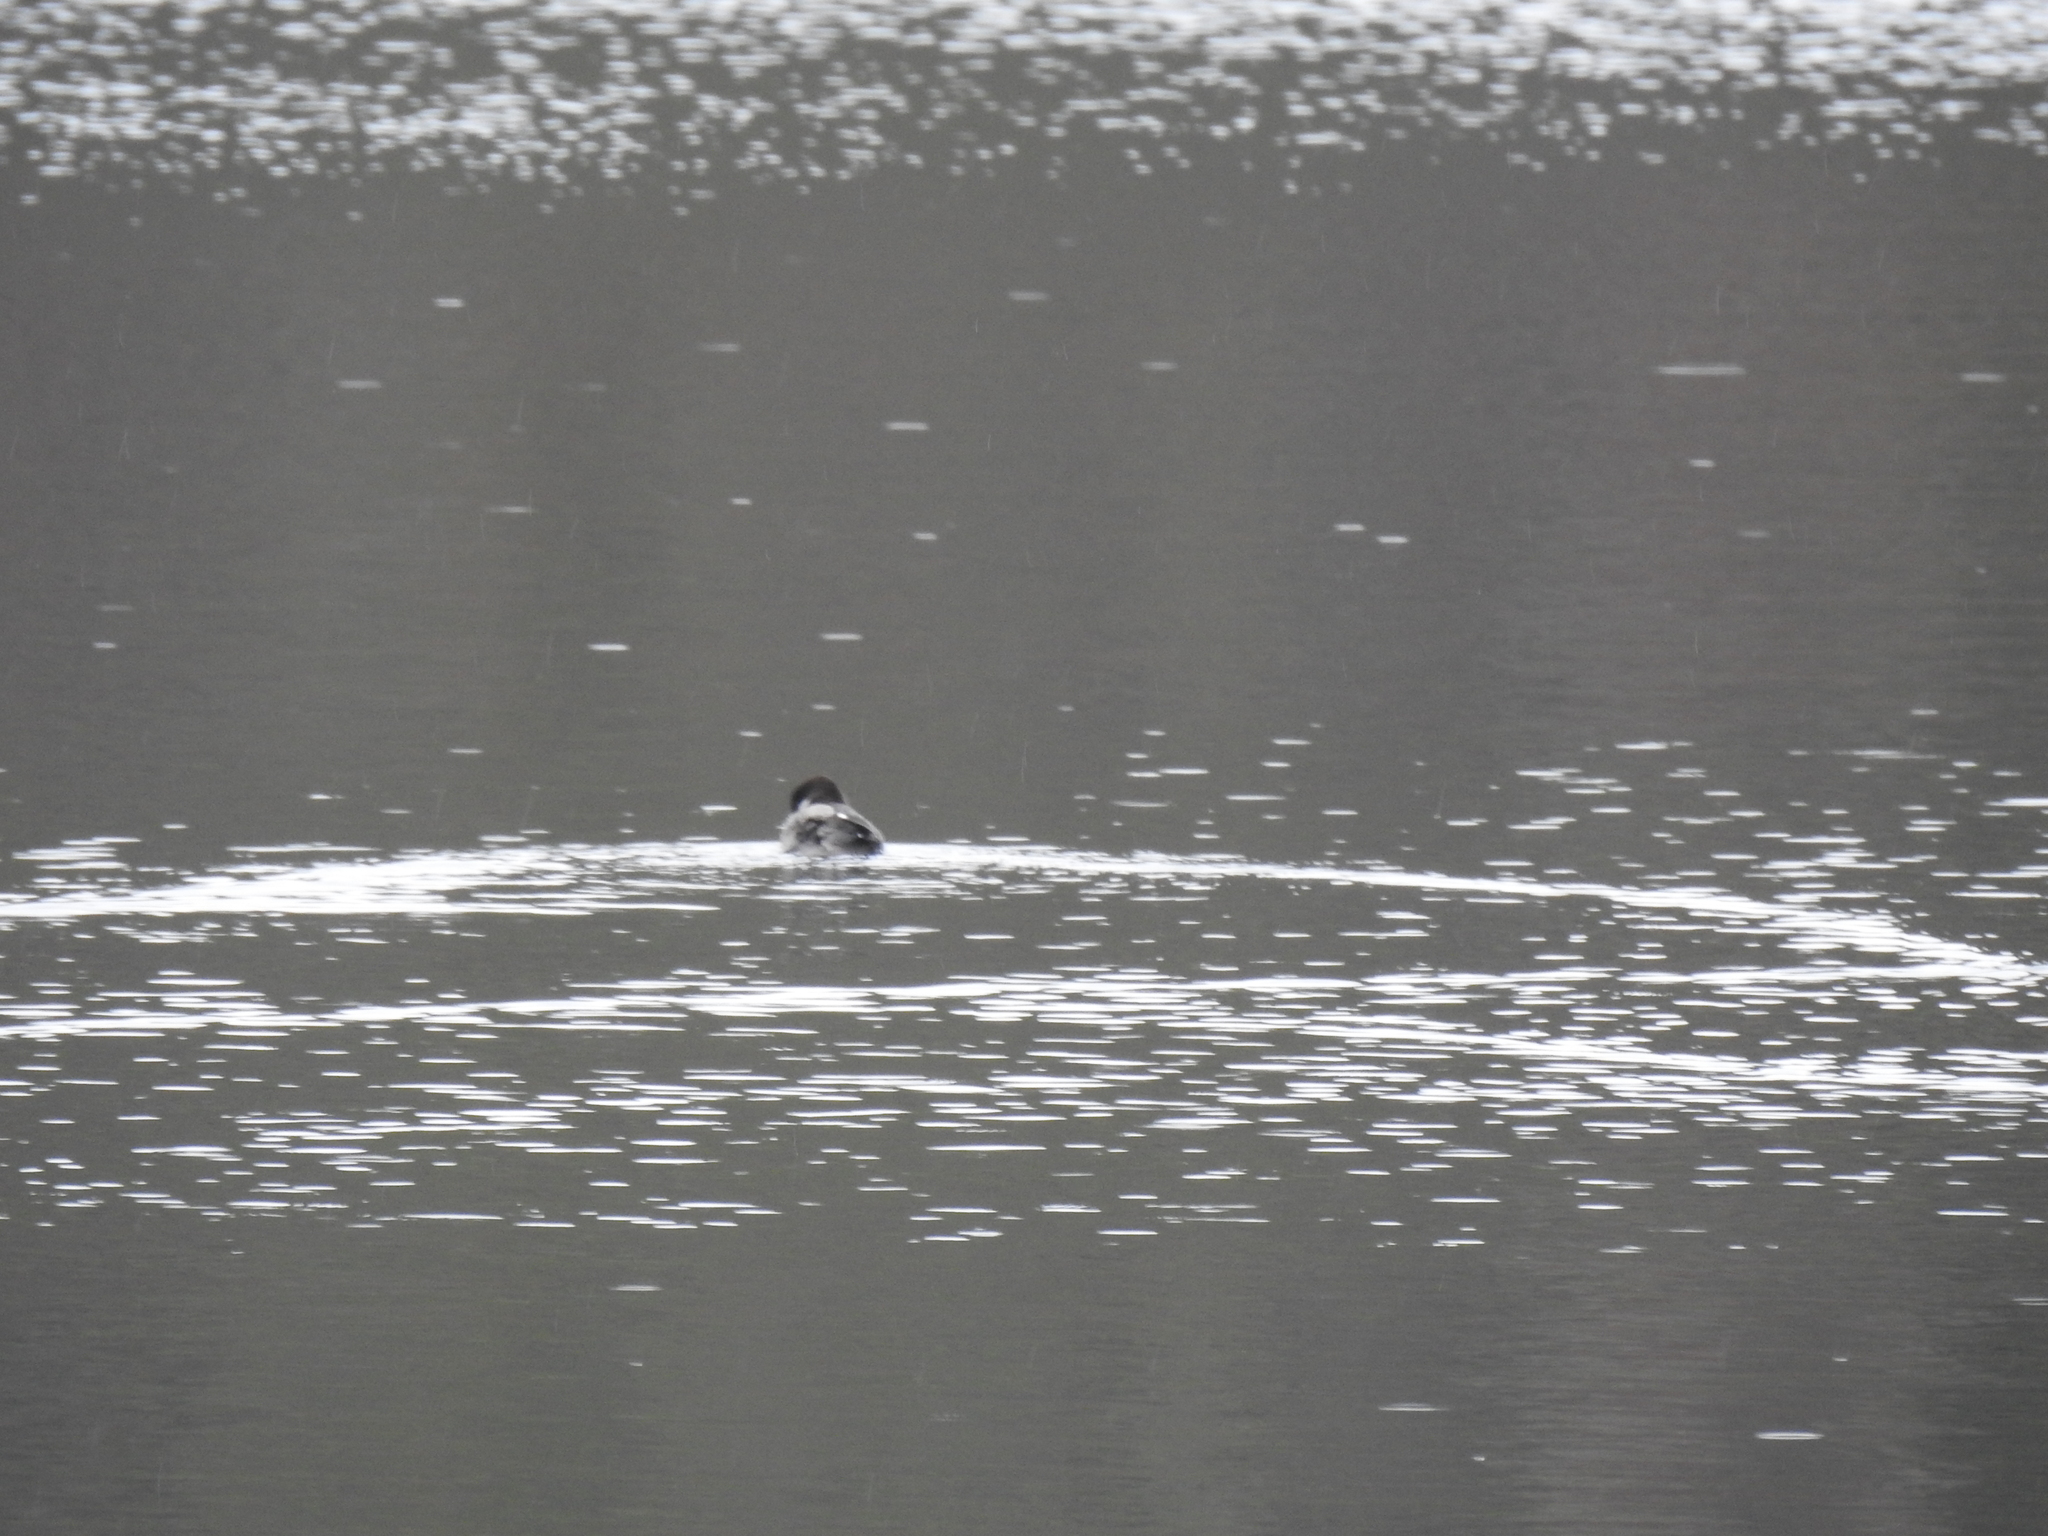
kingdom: Animalia
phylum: Chordata
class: Aves
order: Anseriformes
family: Anatidae
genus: Bucephala
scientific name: Bucephala albeola
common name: Bufflehead
